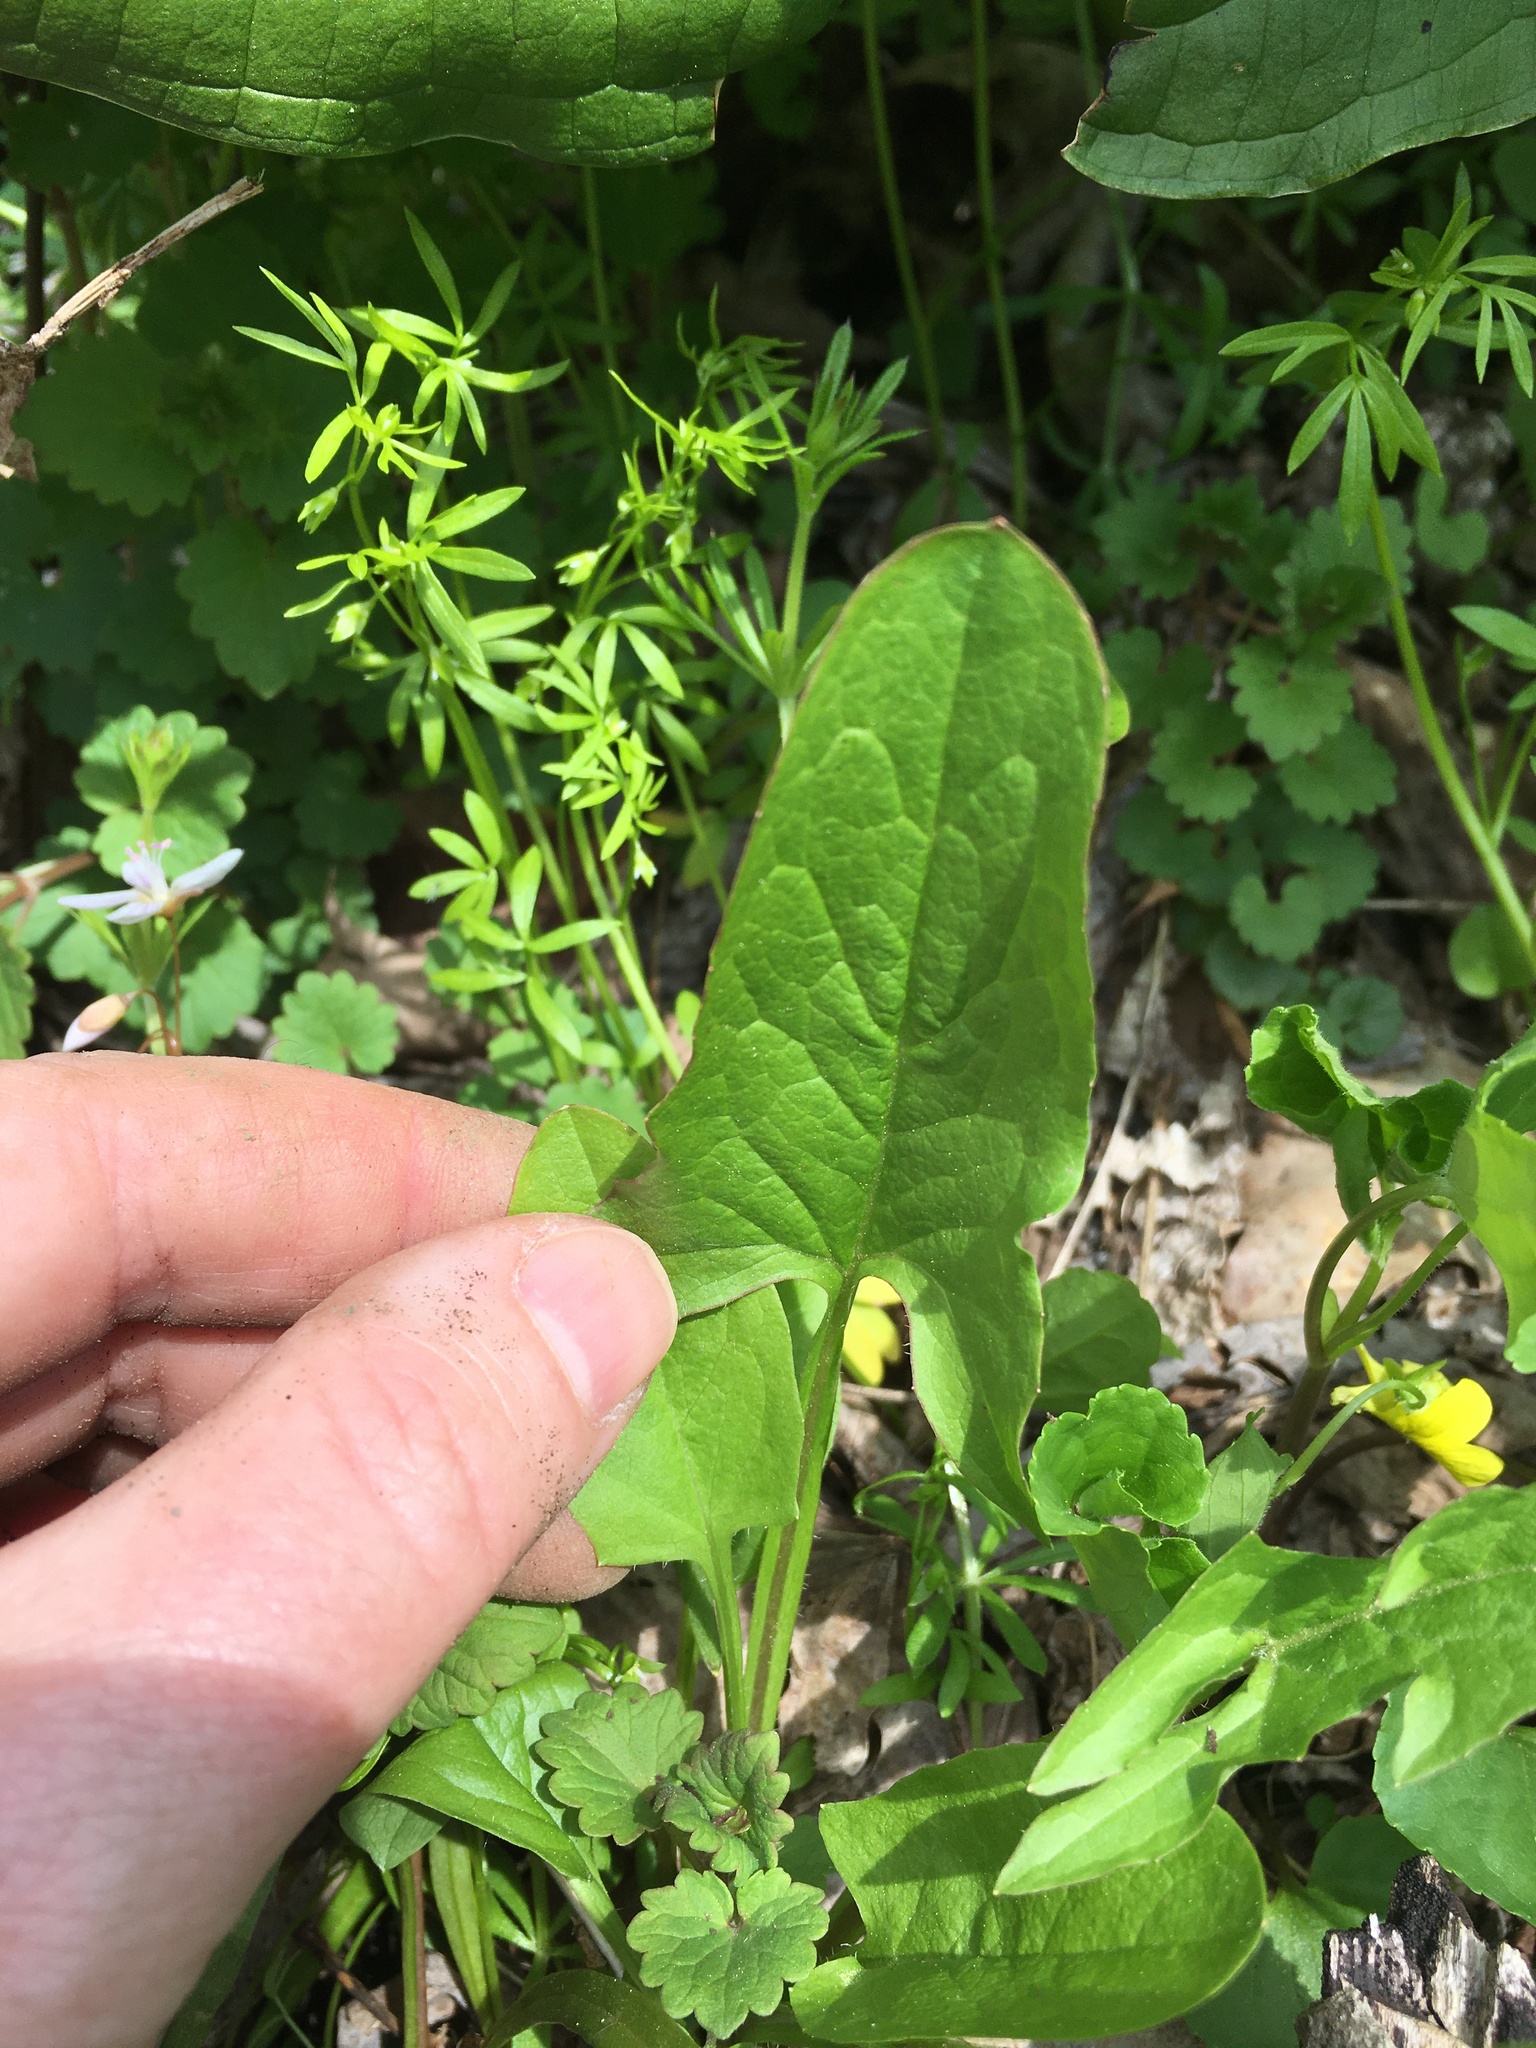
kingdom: Plantae
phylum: Tracheophyta
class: Magnoliopsida
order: Asterales
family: Asteraceae
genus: Nabalus
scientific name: Nabalus crepidineus
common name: Nodding rattlesnakeroot
